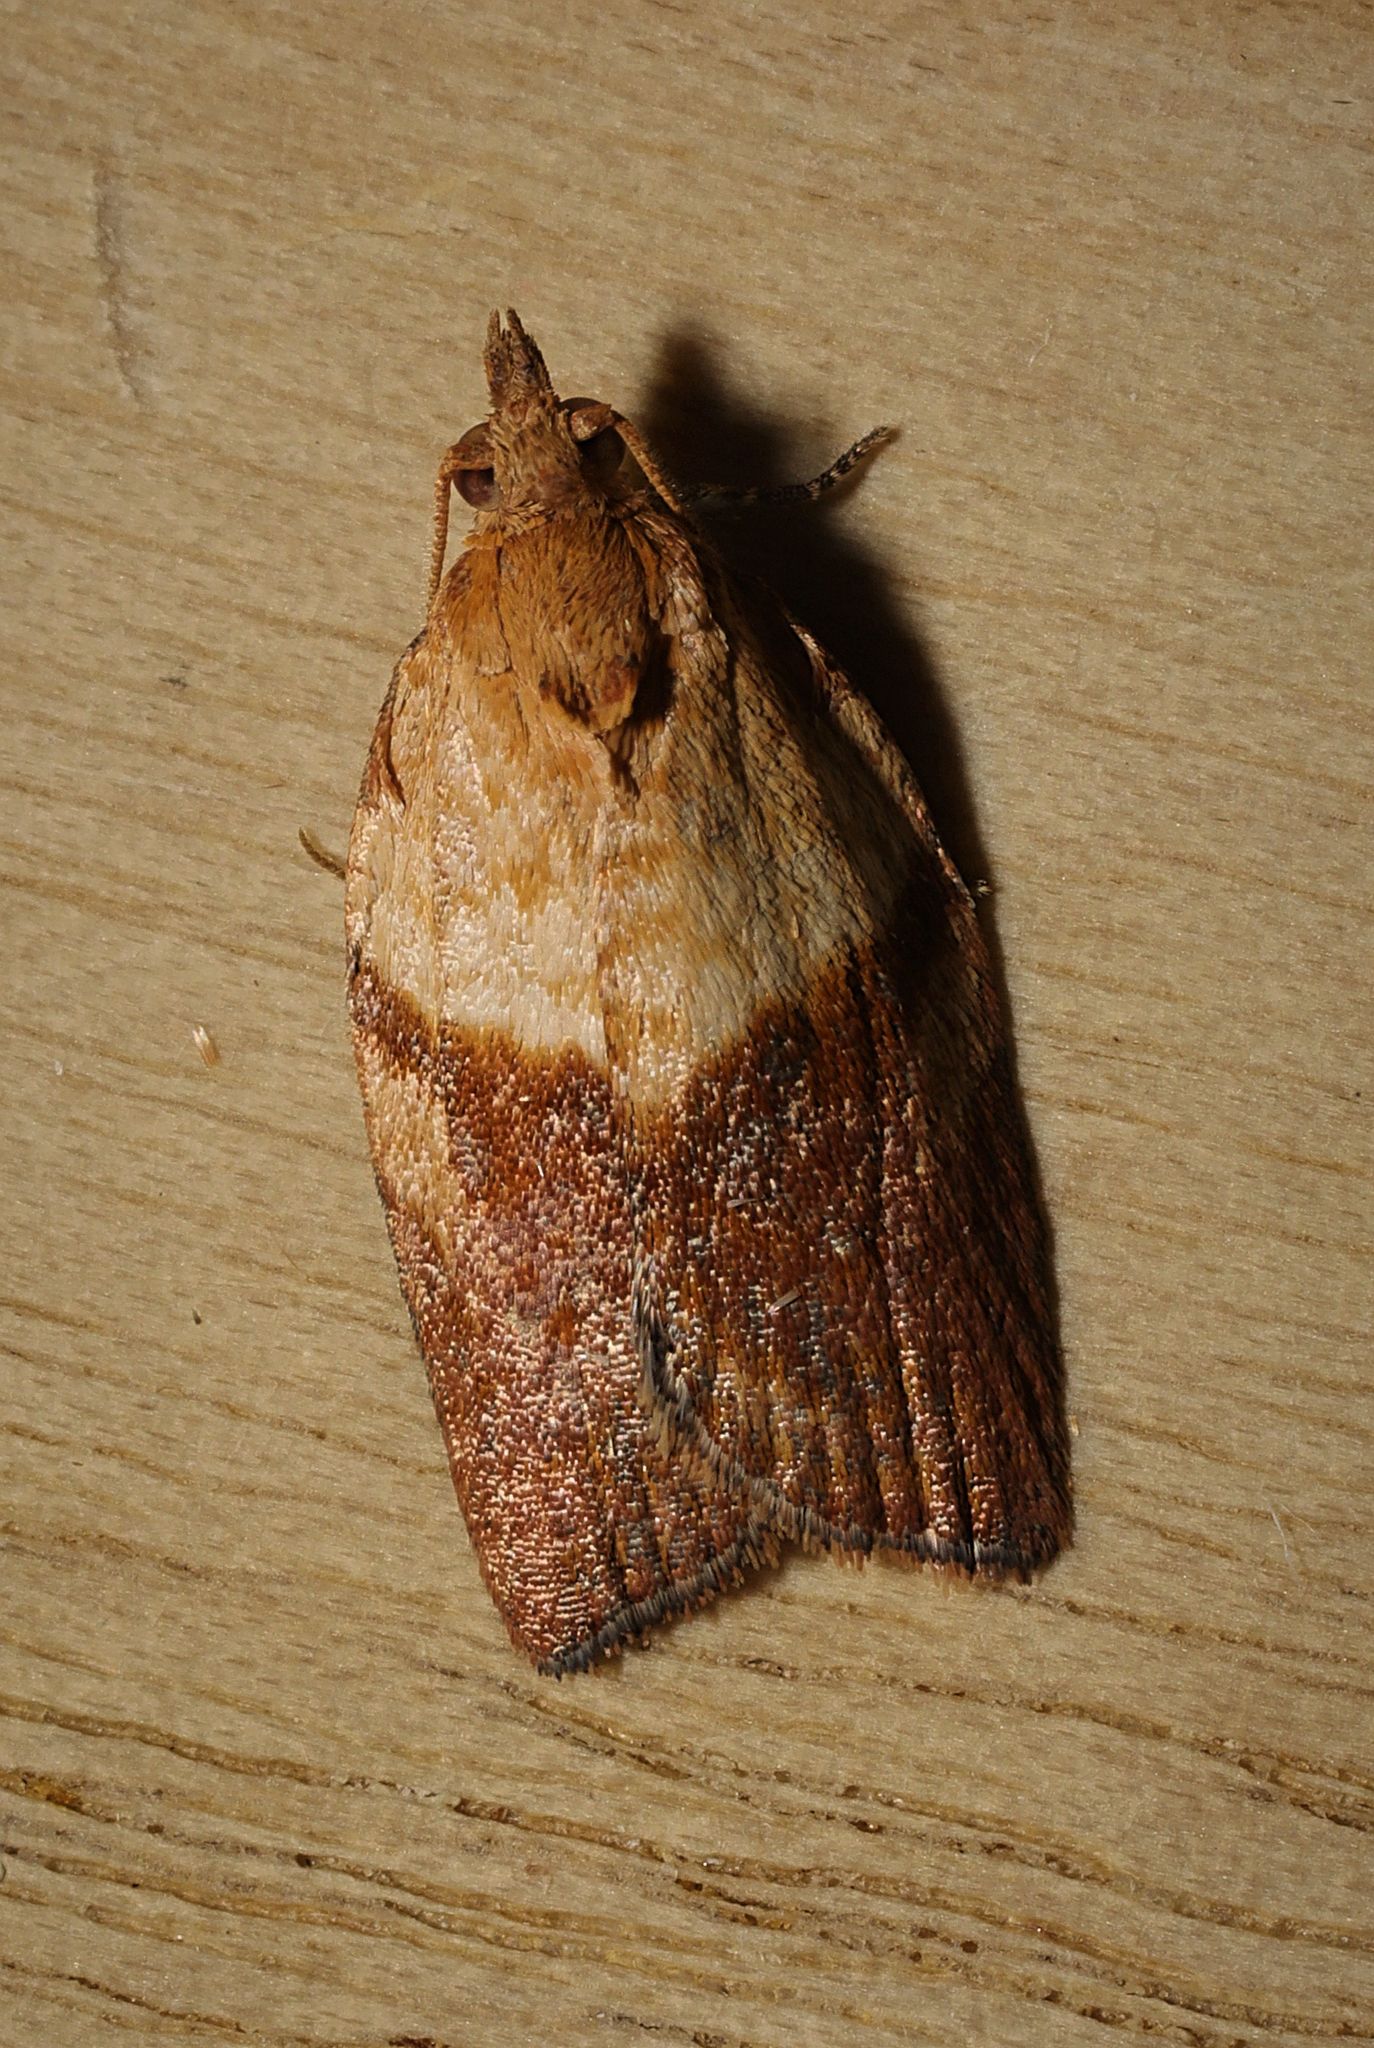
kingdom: Animalia
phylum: Arthropoda
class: Insecta
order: Lepidoptera
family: Tortricidae
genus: Epiphyas
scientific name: Epiphyas postvittana
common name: Light brown apple moth
